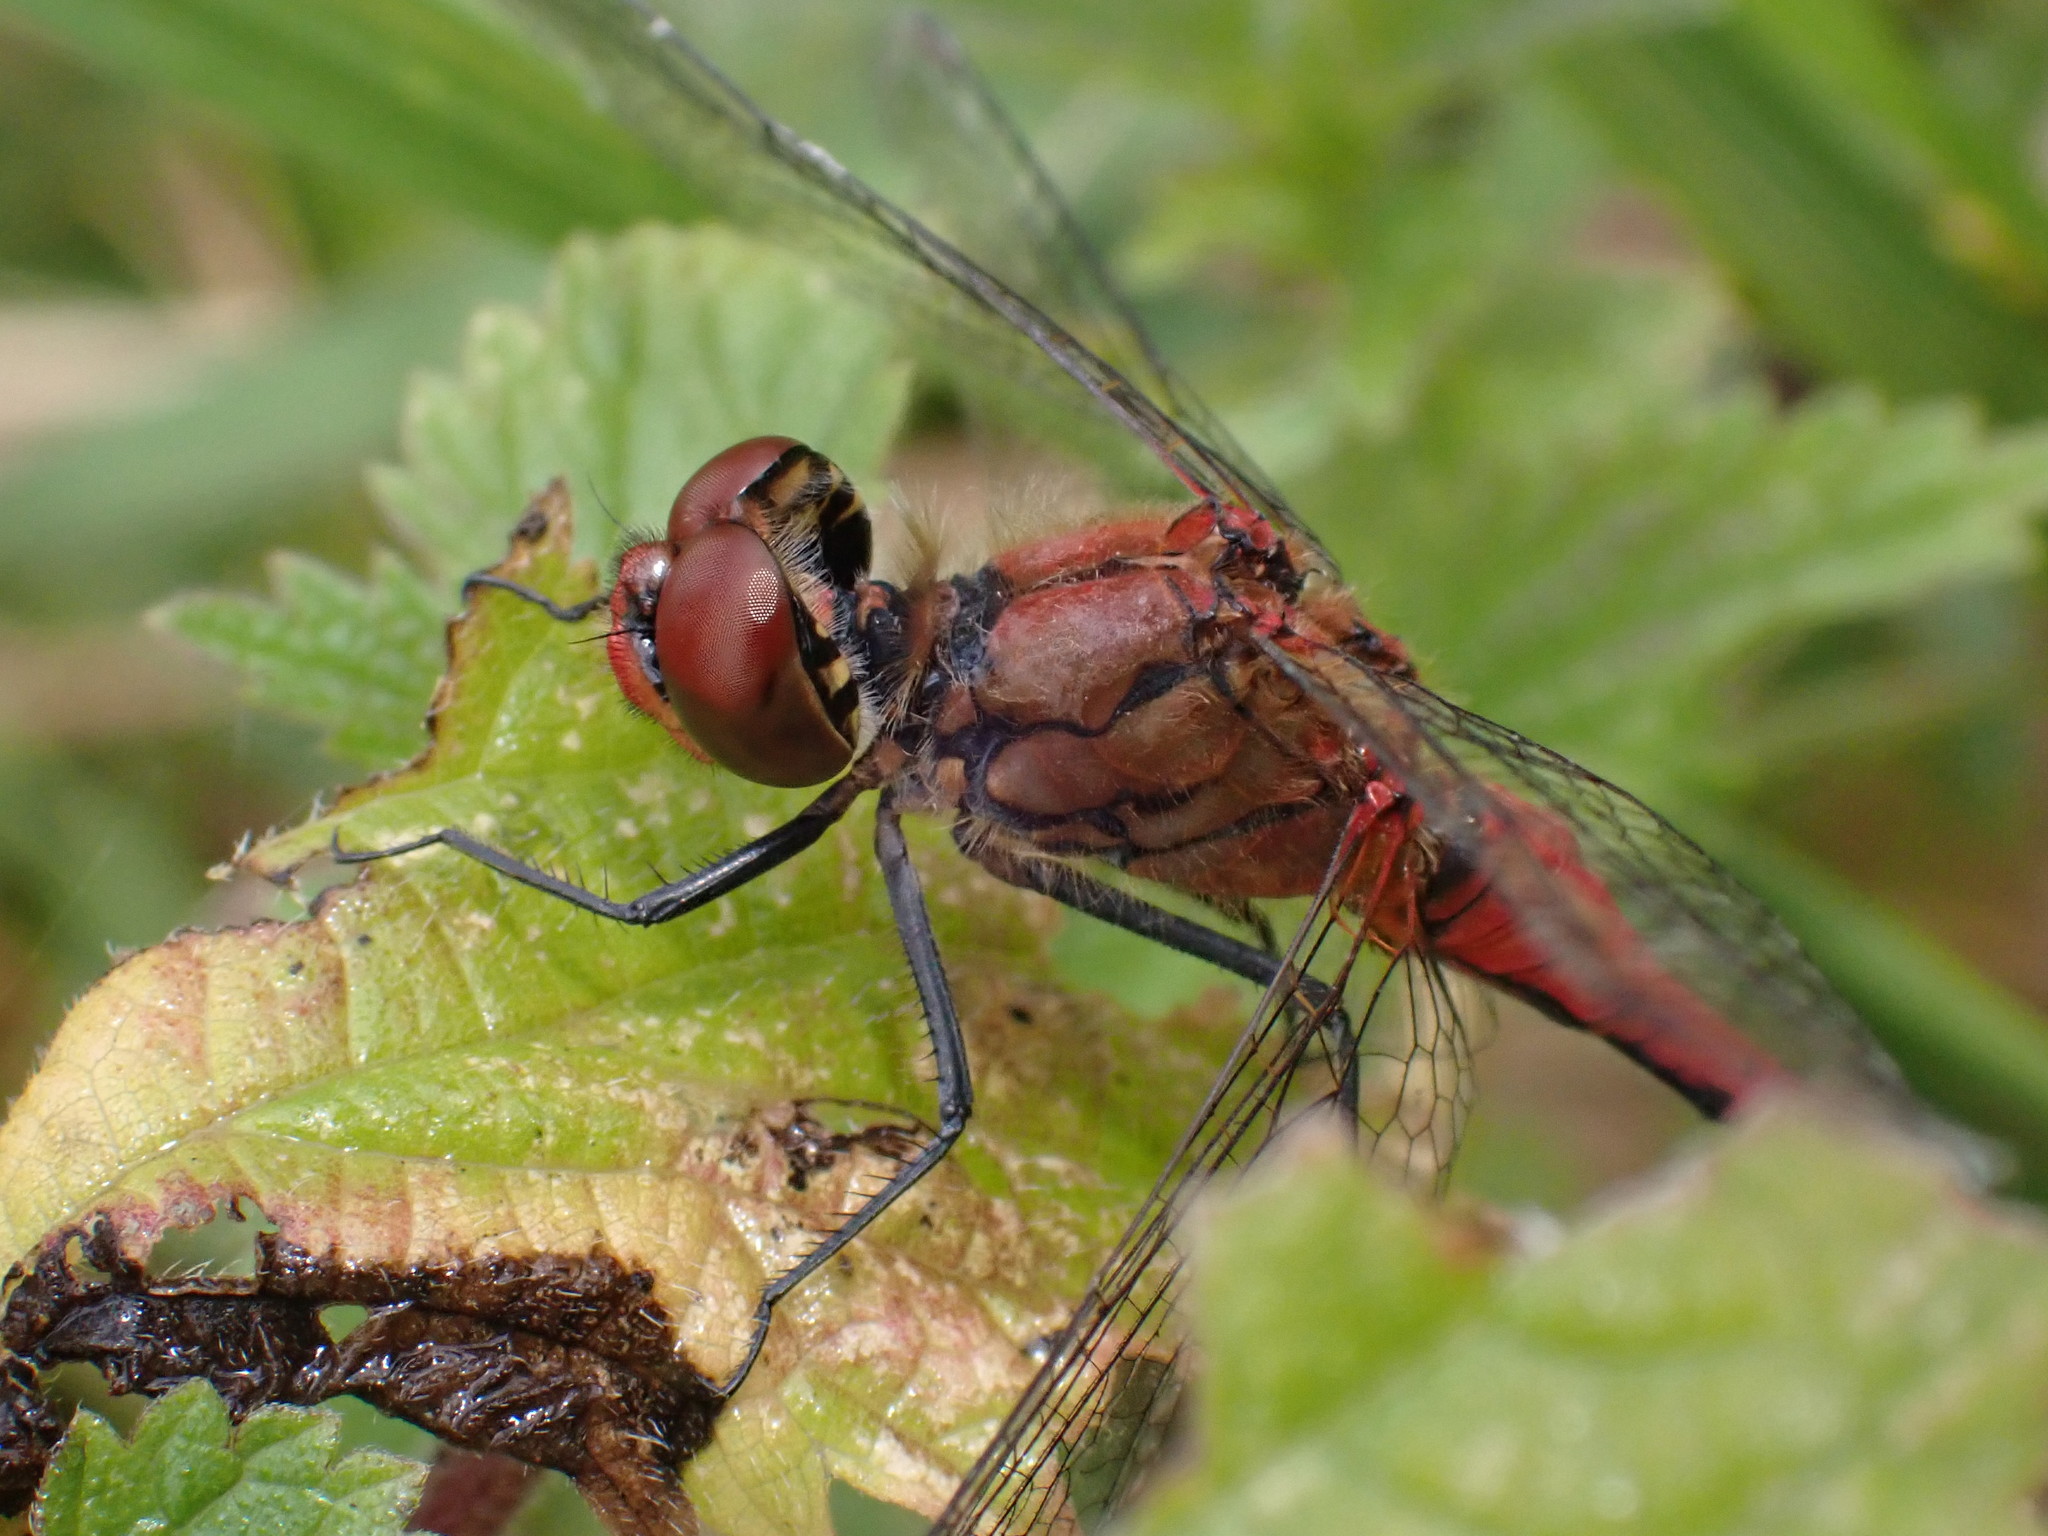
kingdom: Animalia
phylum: Arthropoda
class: Insecta
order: Odonata
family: Libellulidae
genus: Sympetrum
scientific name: Sympetrum sanguineum
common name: Ruddy darter
